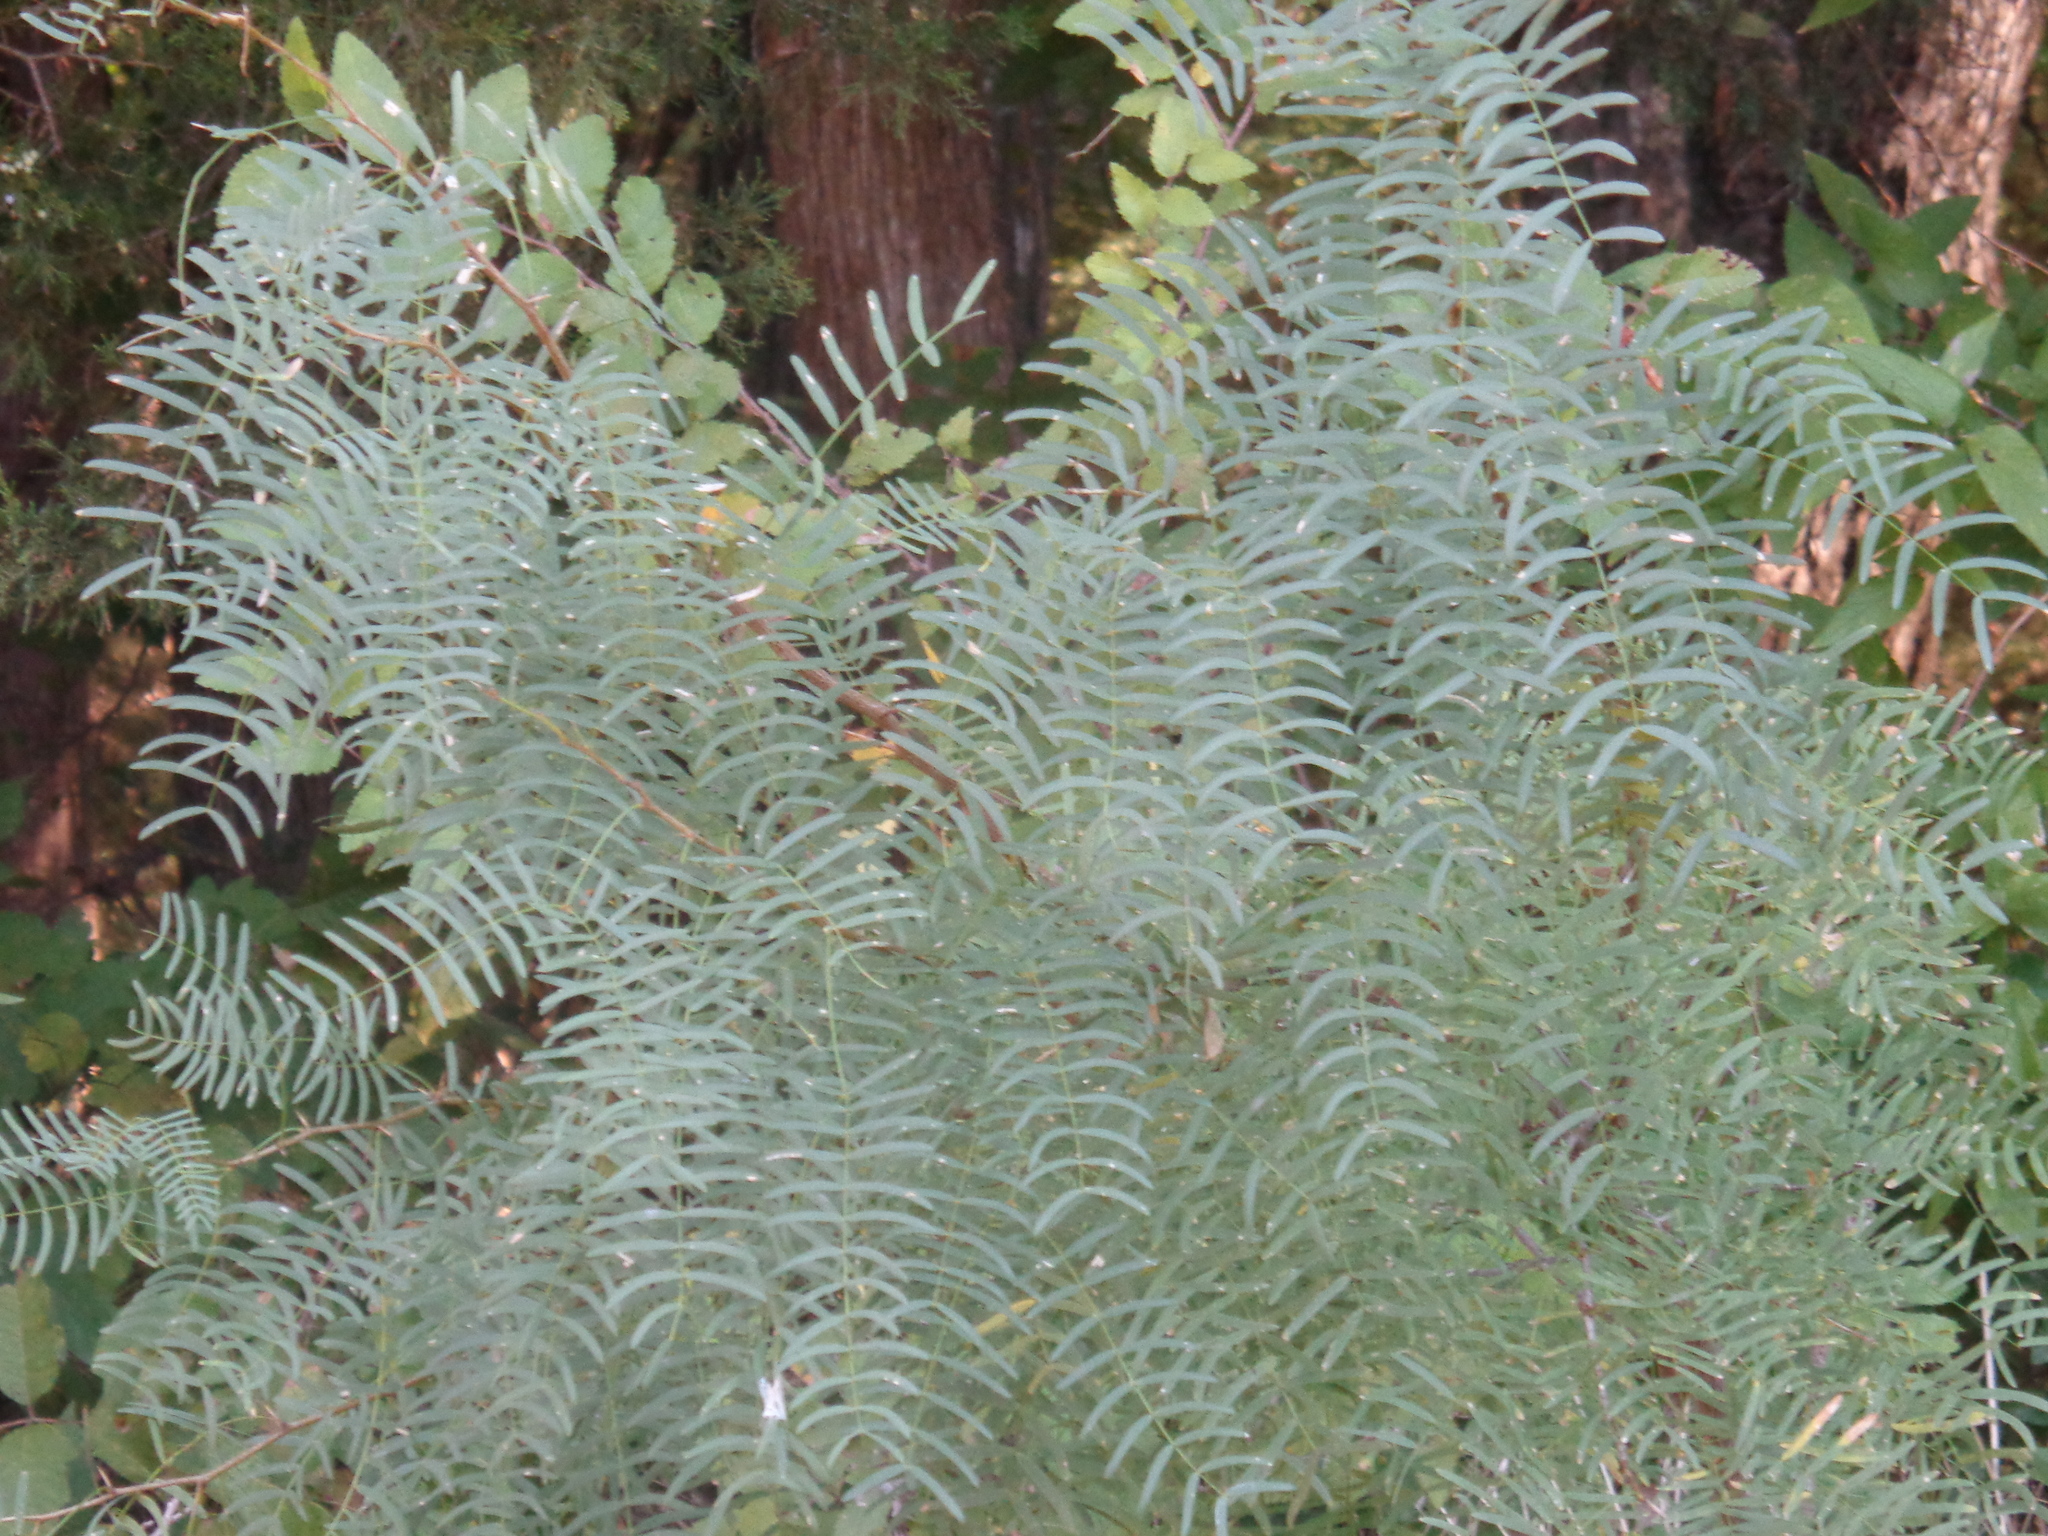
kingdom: Plantae
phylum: Tracheophyta
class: Magnoliopsida
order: Fabales
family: Fabaceae
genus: Prosopis
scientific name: Prosopis glandulosa
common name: Honey mesquite
